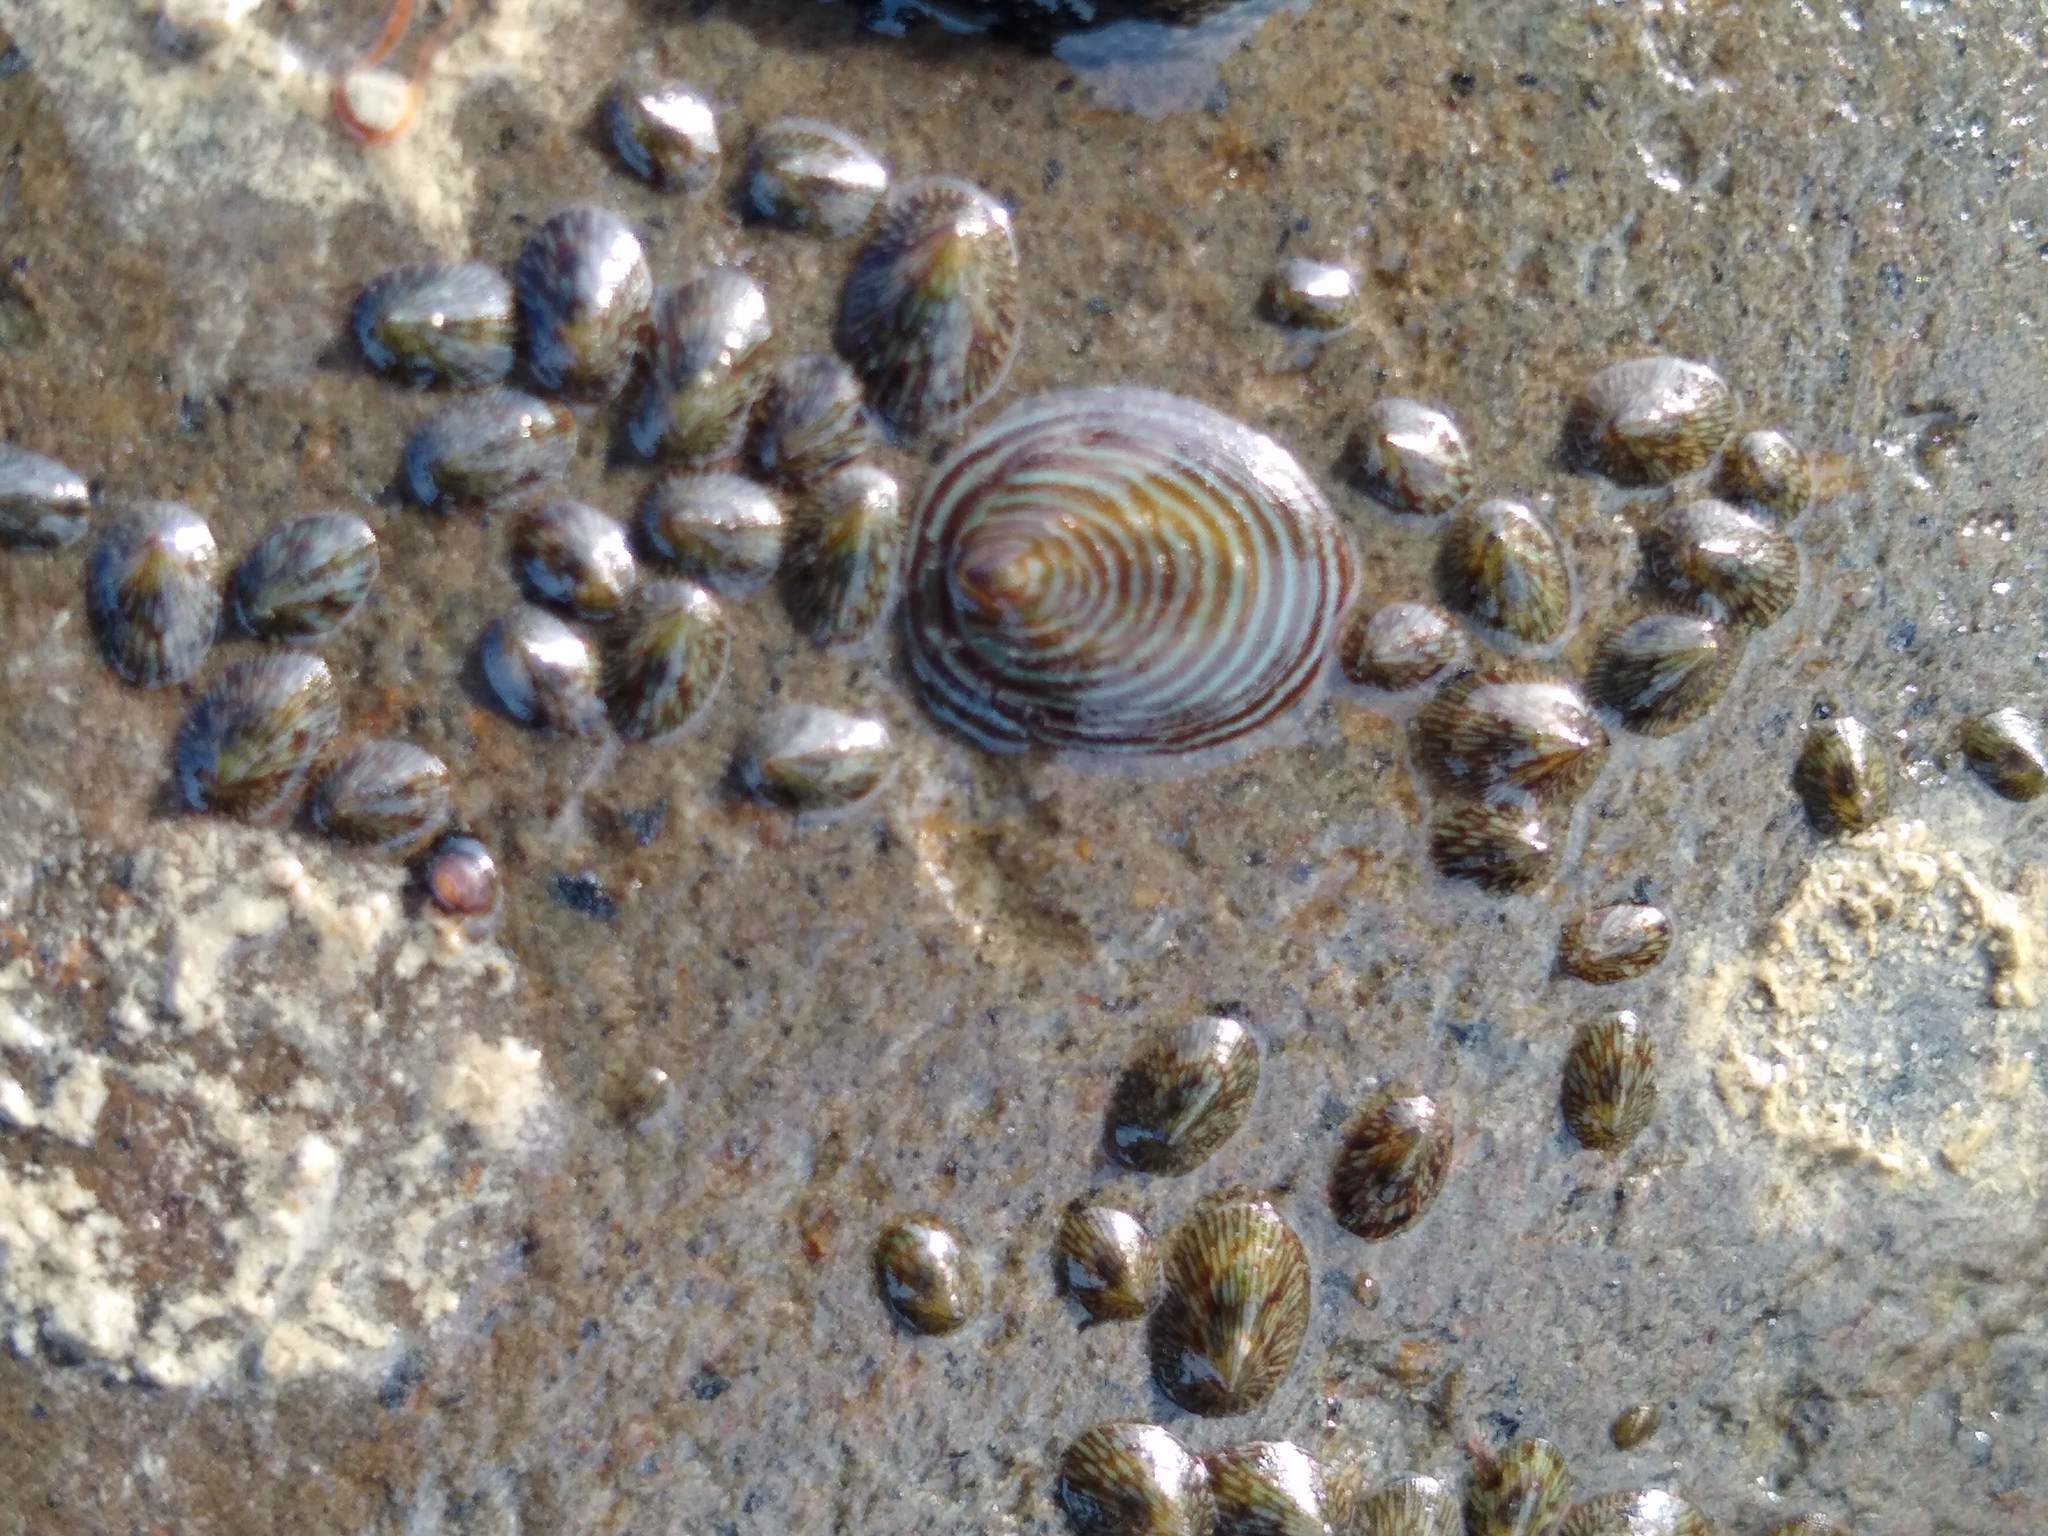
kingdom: Animalia
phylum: Mollusca
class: Gastropoda
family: Lottiidae
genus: Atalacmea
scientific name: Atalacmea fragilis
